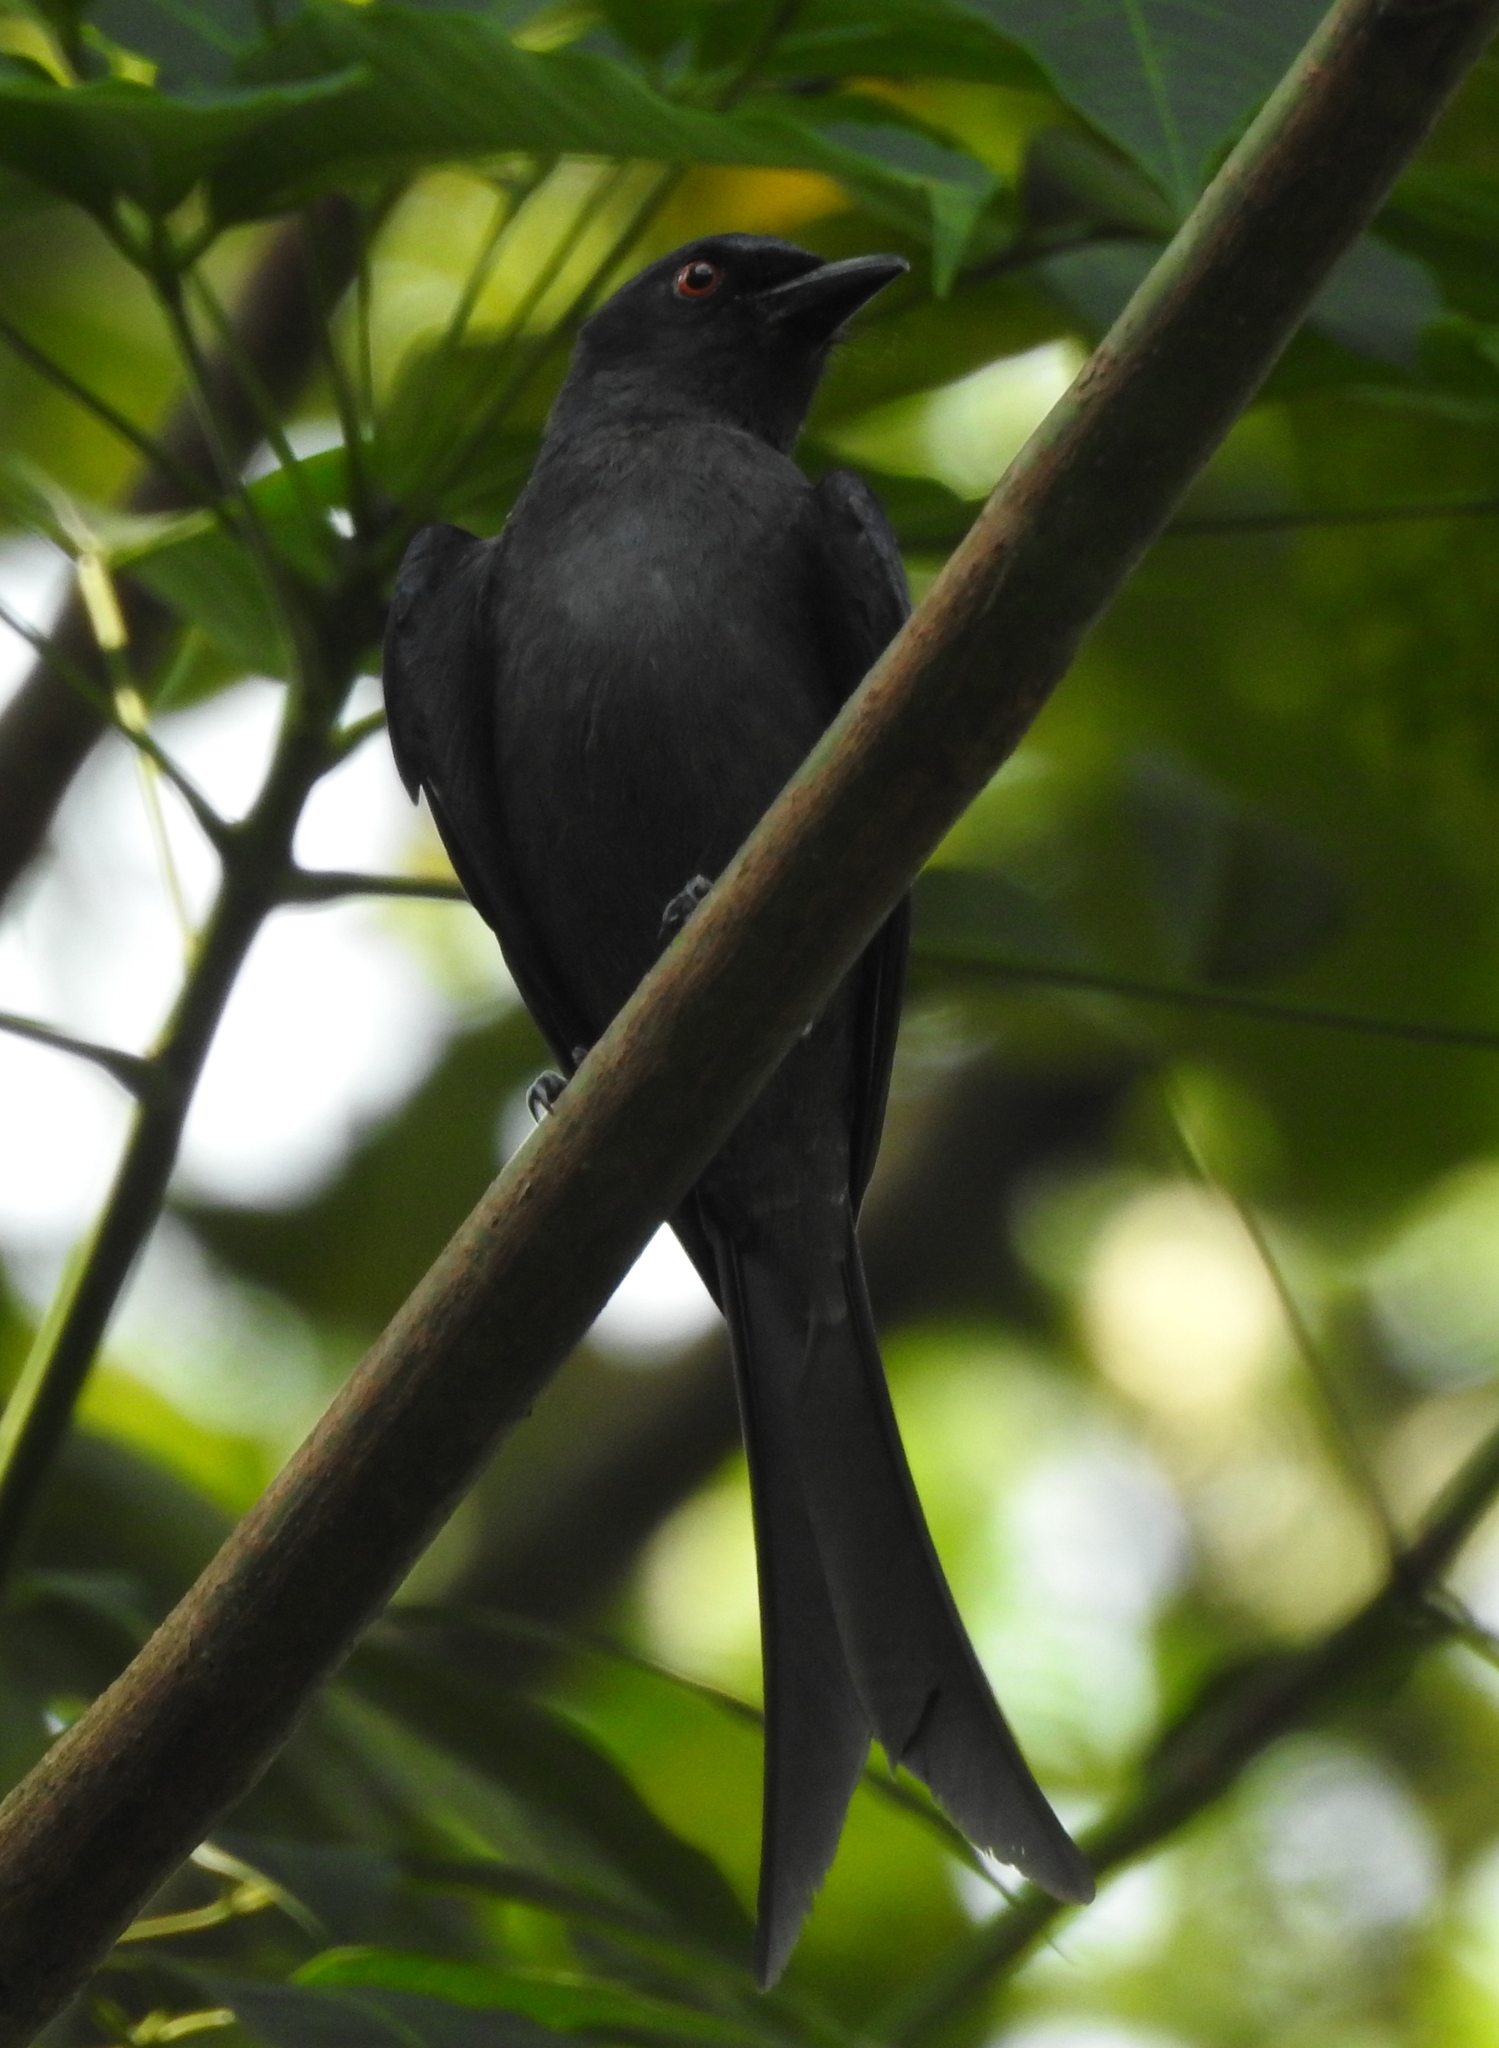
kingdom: Animalia
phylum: Chordata
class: Aves
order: Passeriformes
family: Dicruridae
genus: Dicrurus
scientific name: Dicrurus leucophaeus
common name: Ashy drongo
